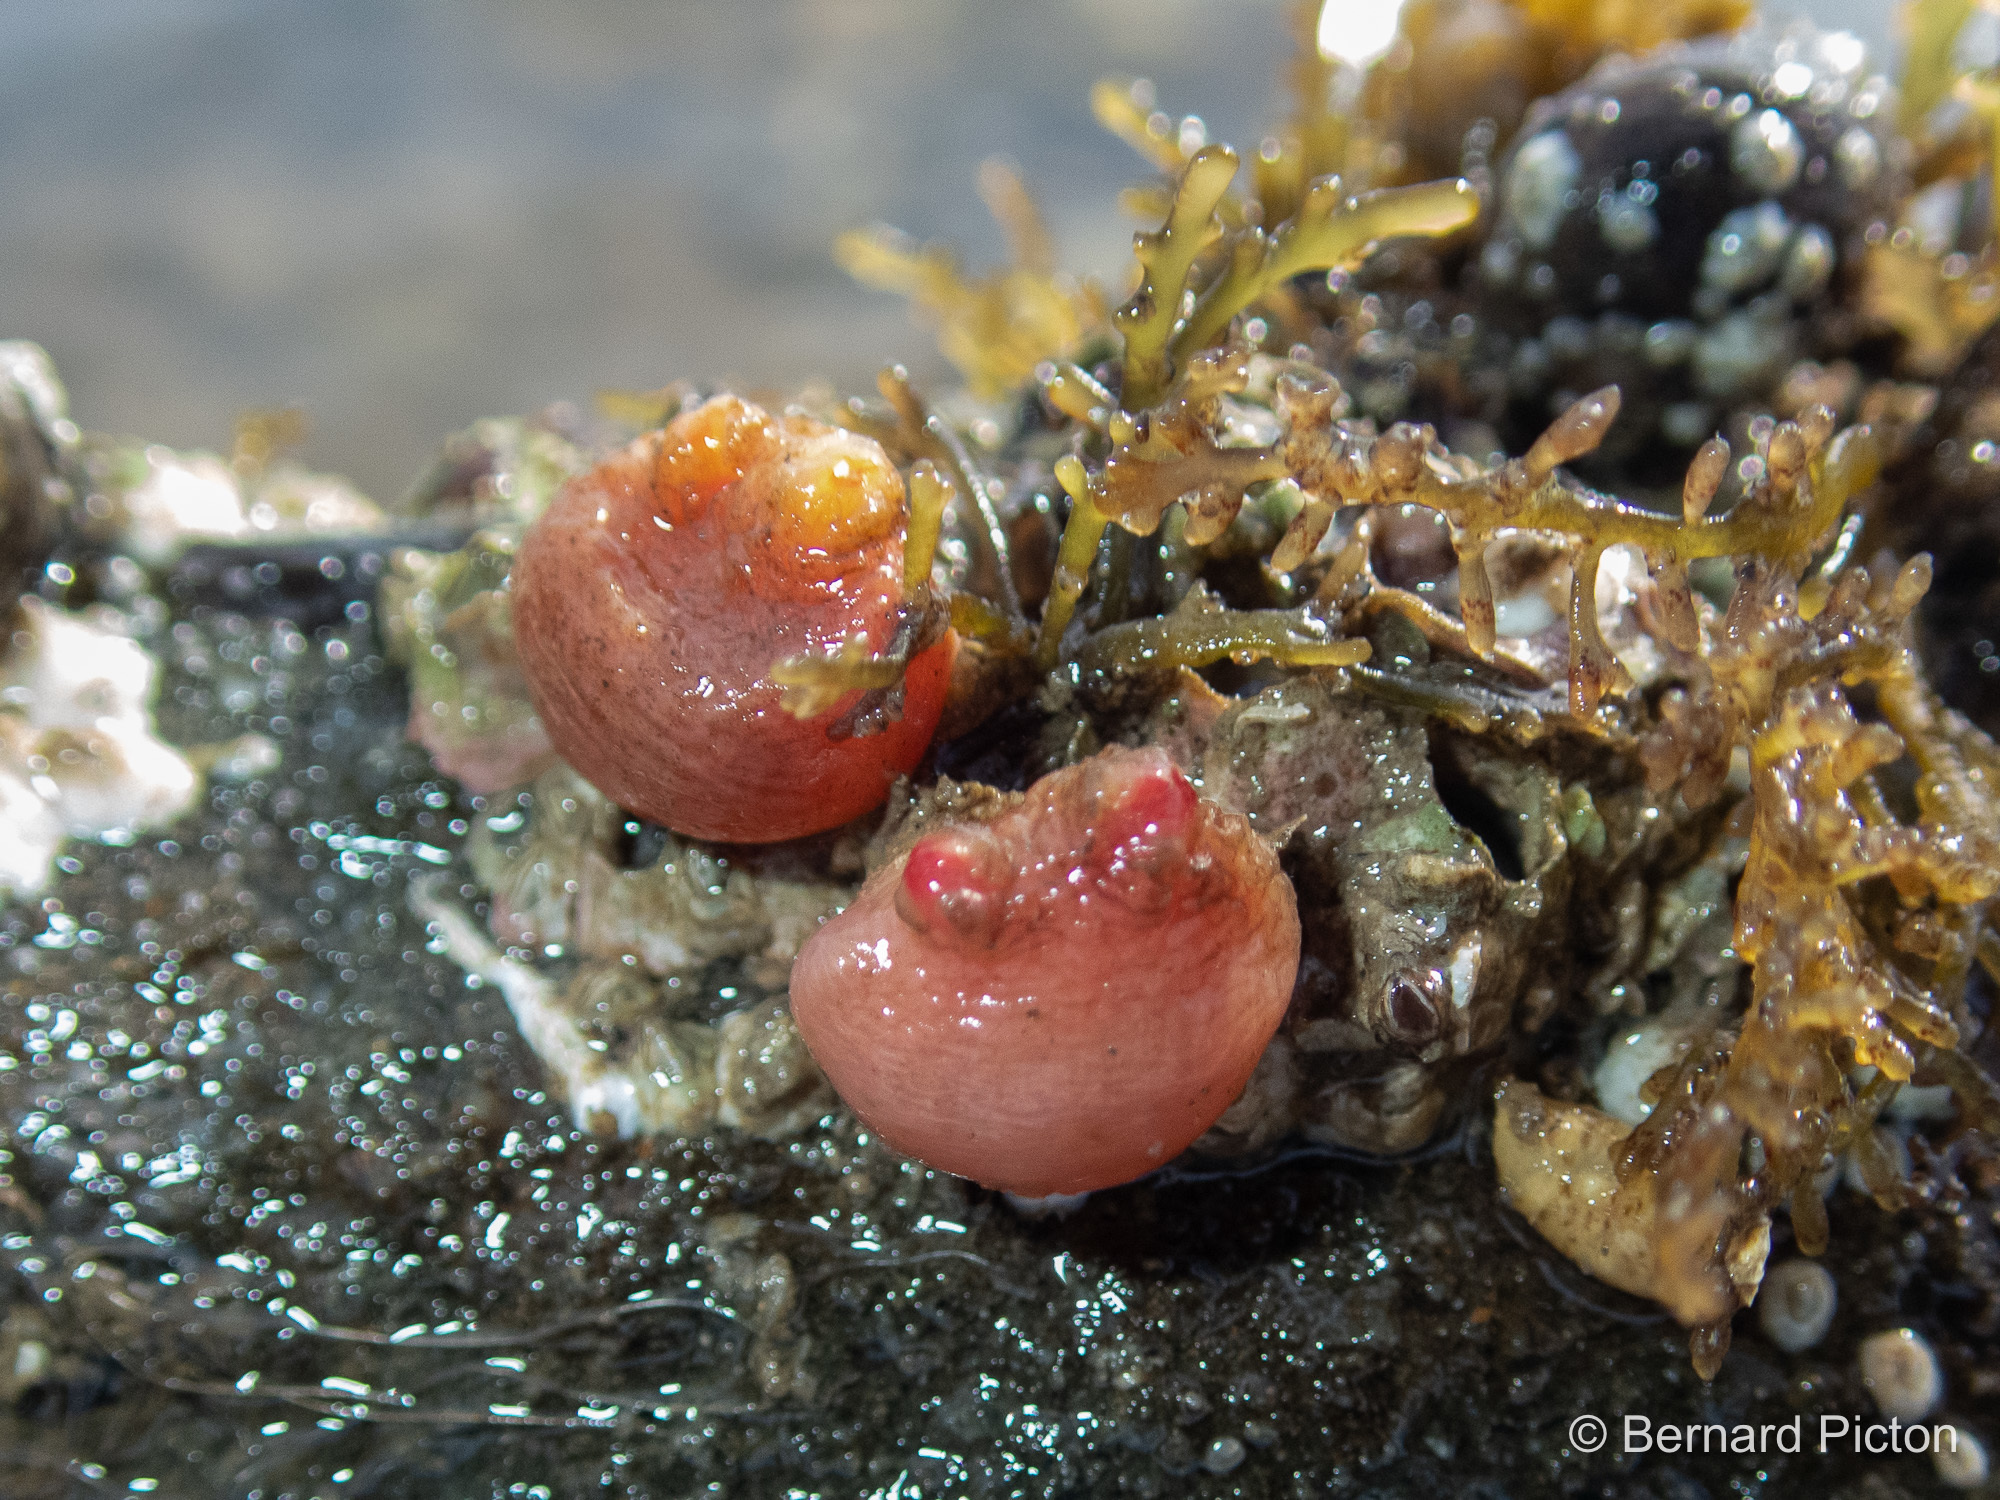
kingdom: Animalia
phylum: Chordata
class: Ascidiacea
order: Stolidobranchia
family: Styelidae
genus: Polycarpa
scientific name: Polycarpa scuba
